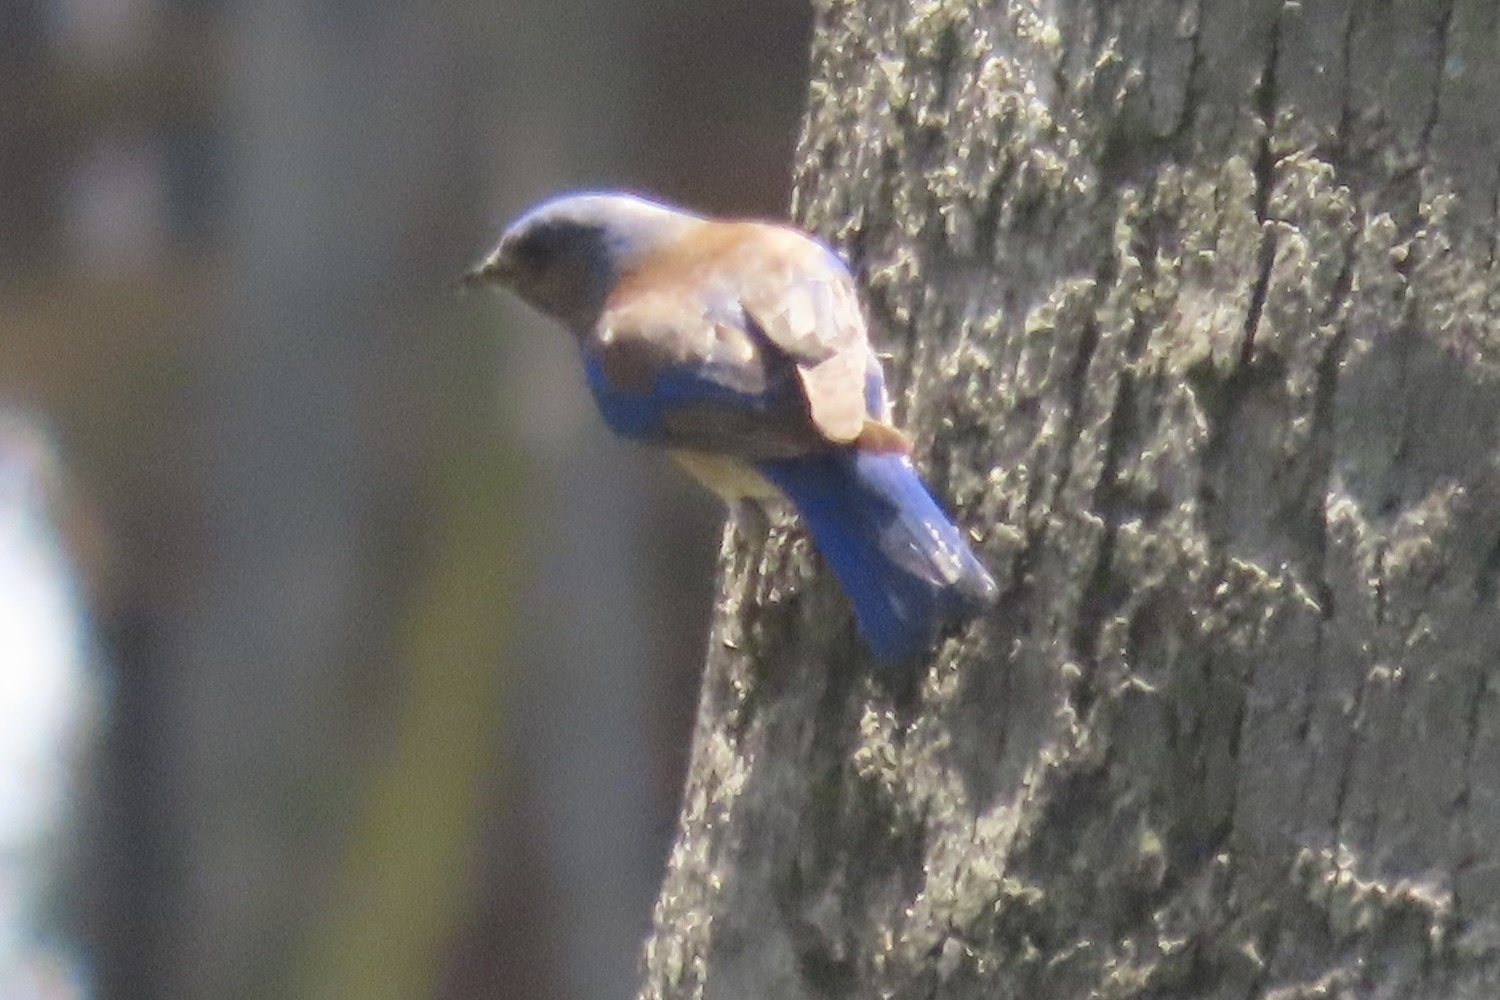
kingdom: Animalia
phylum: Chordata
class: Aves
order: Passeriformes
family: Turdidae
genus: Sialia
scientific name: Sialia mexicana
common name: Western bluebird
